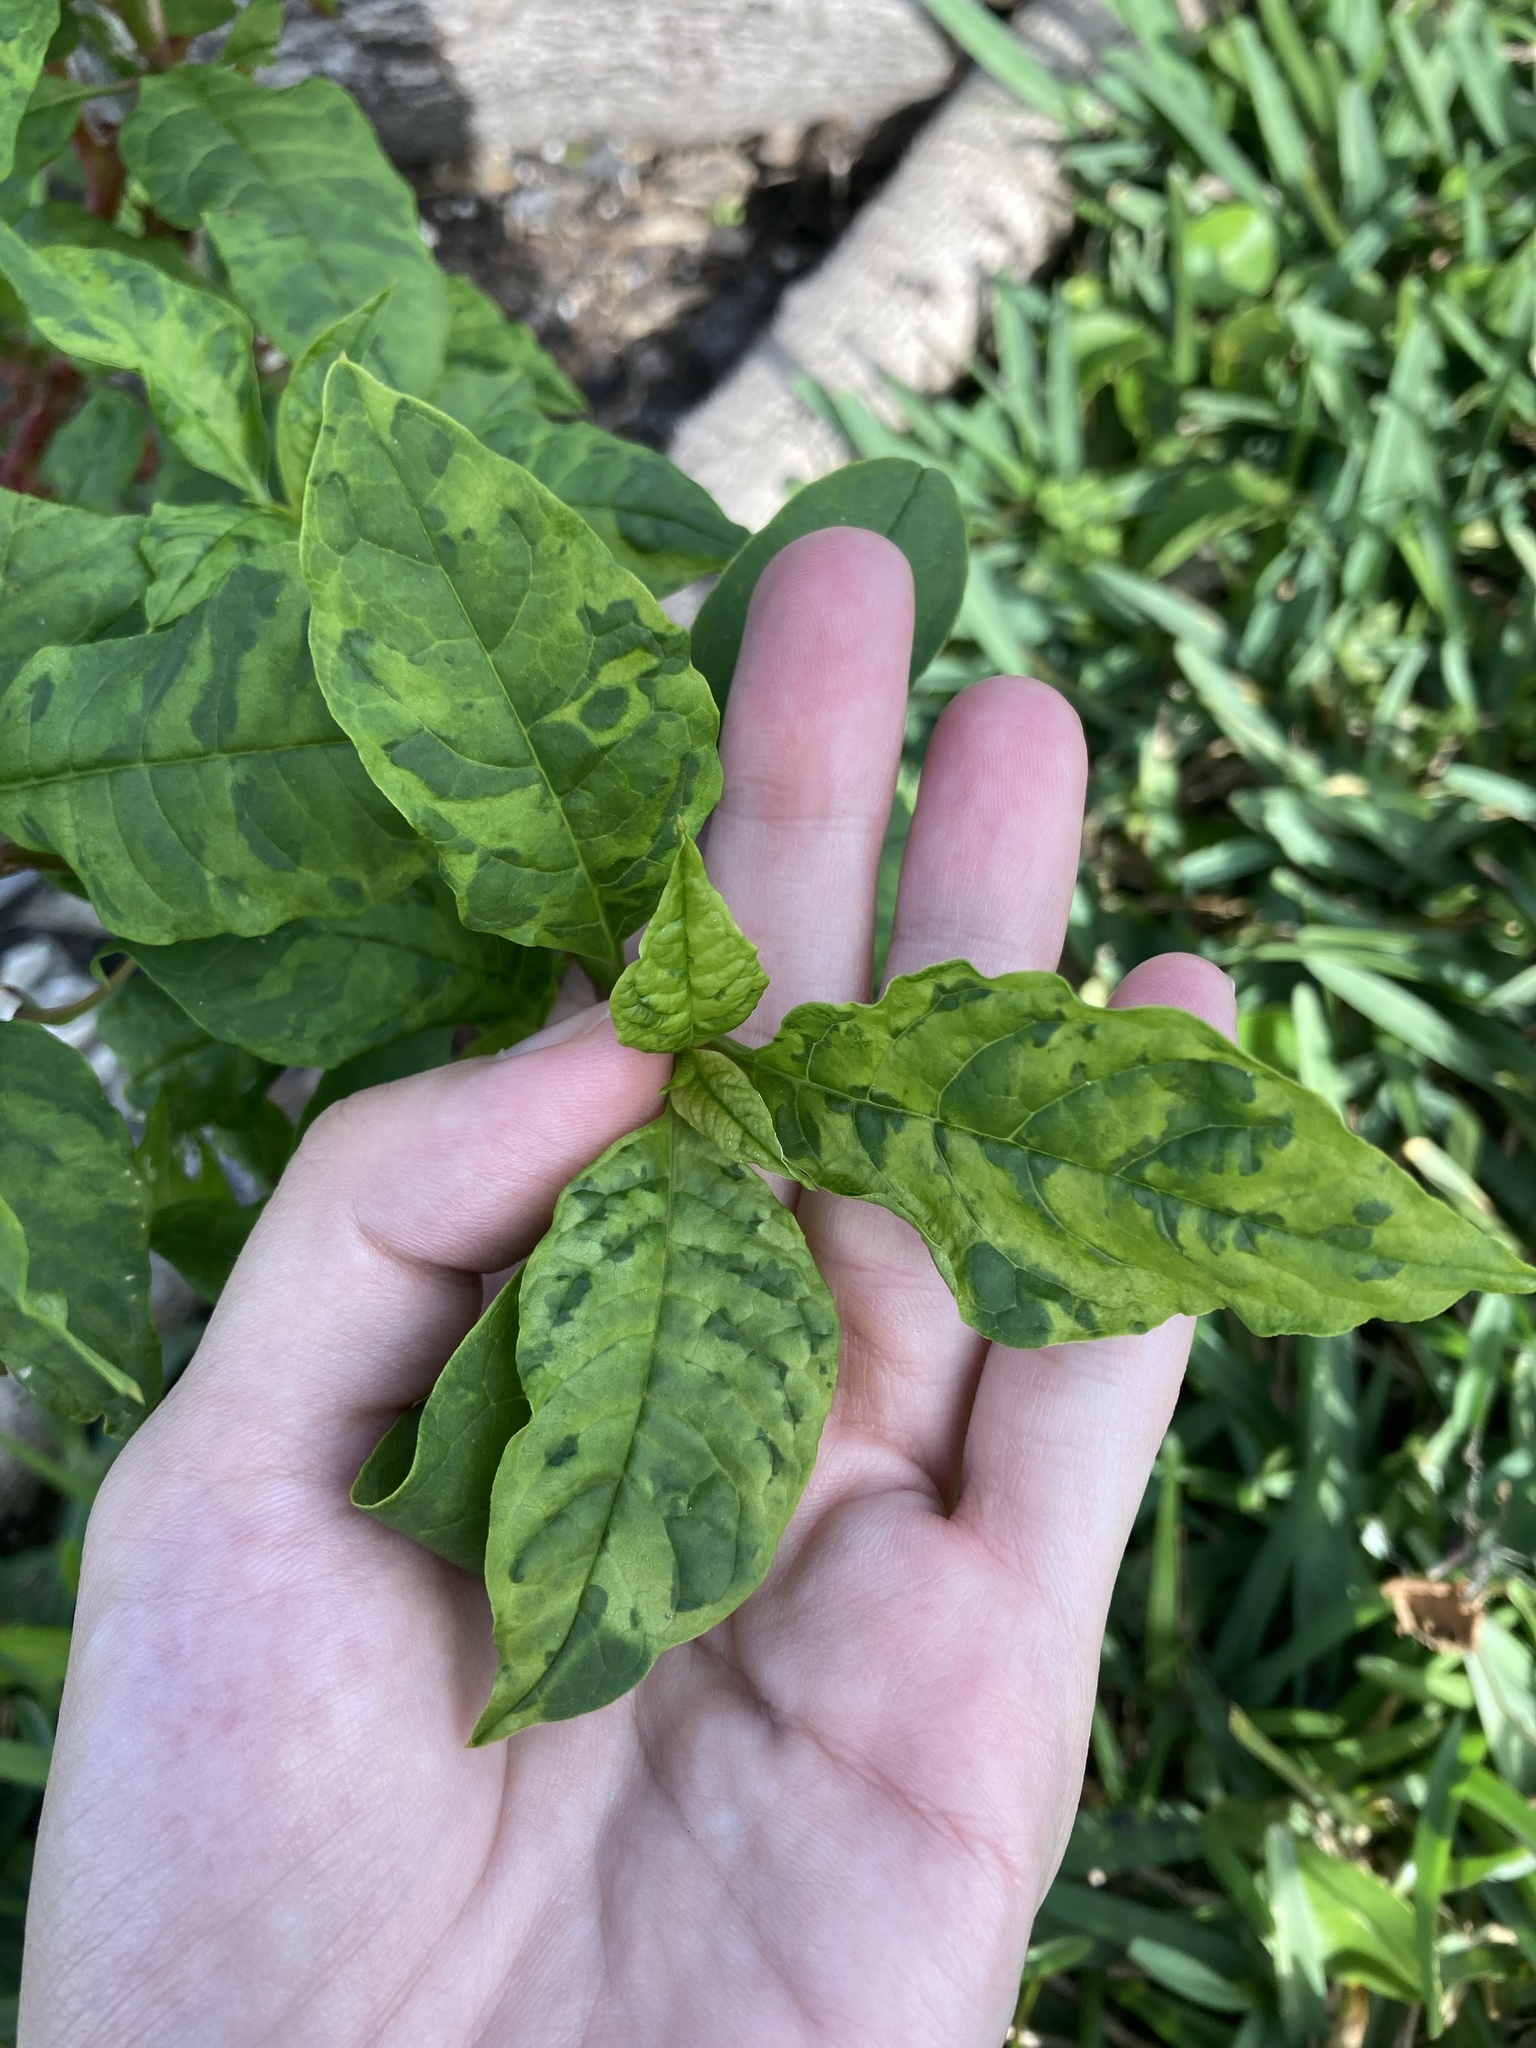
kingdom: Viruses
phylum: Pisuviricota
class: Stelpaviricetes
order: Patatavirales
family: Potyviridae
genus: Potyvirus
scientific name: Potyvirus Pokeweed mosaic virus
